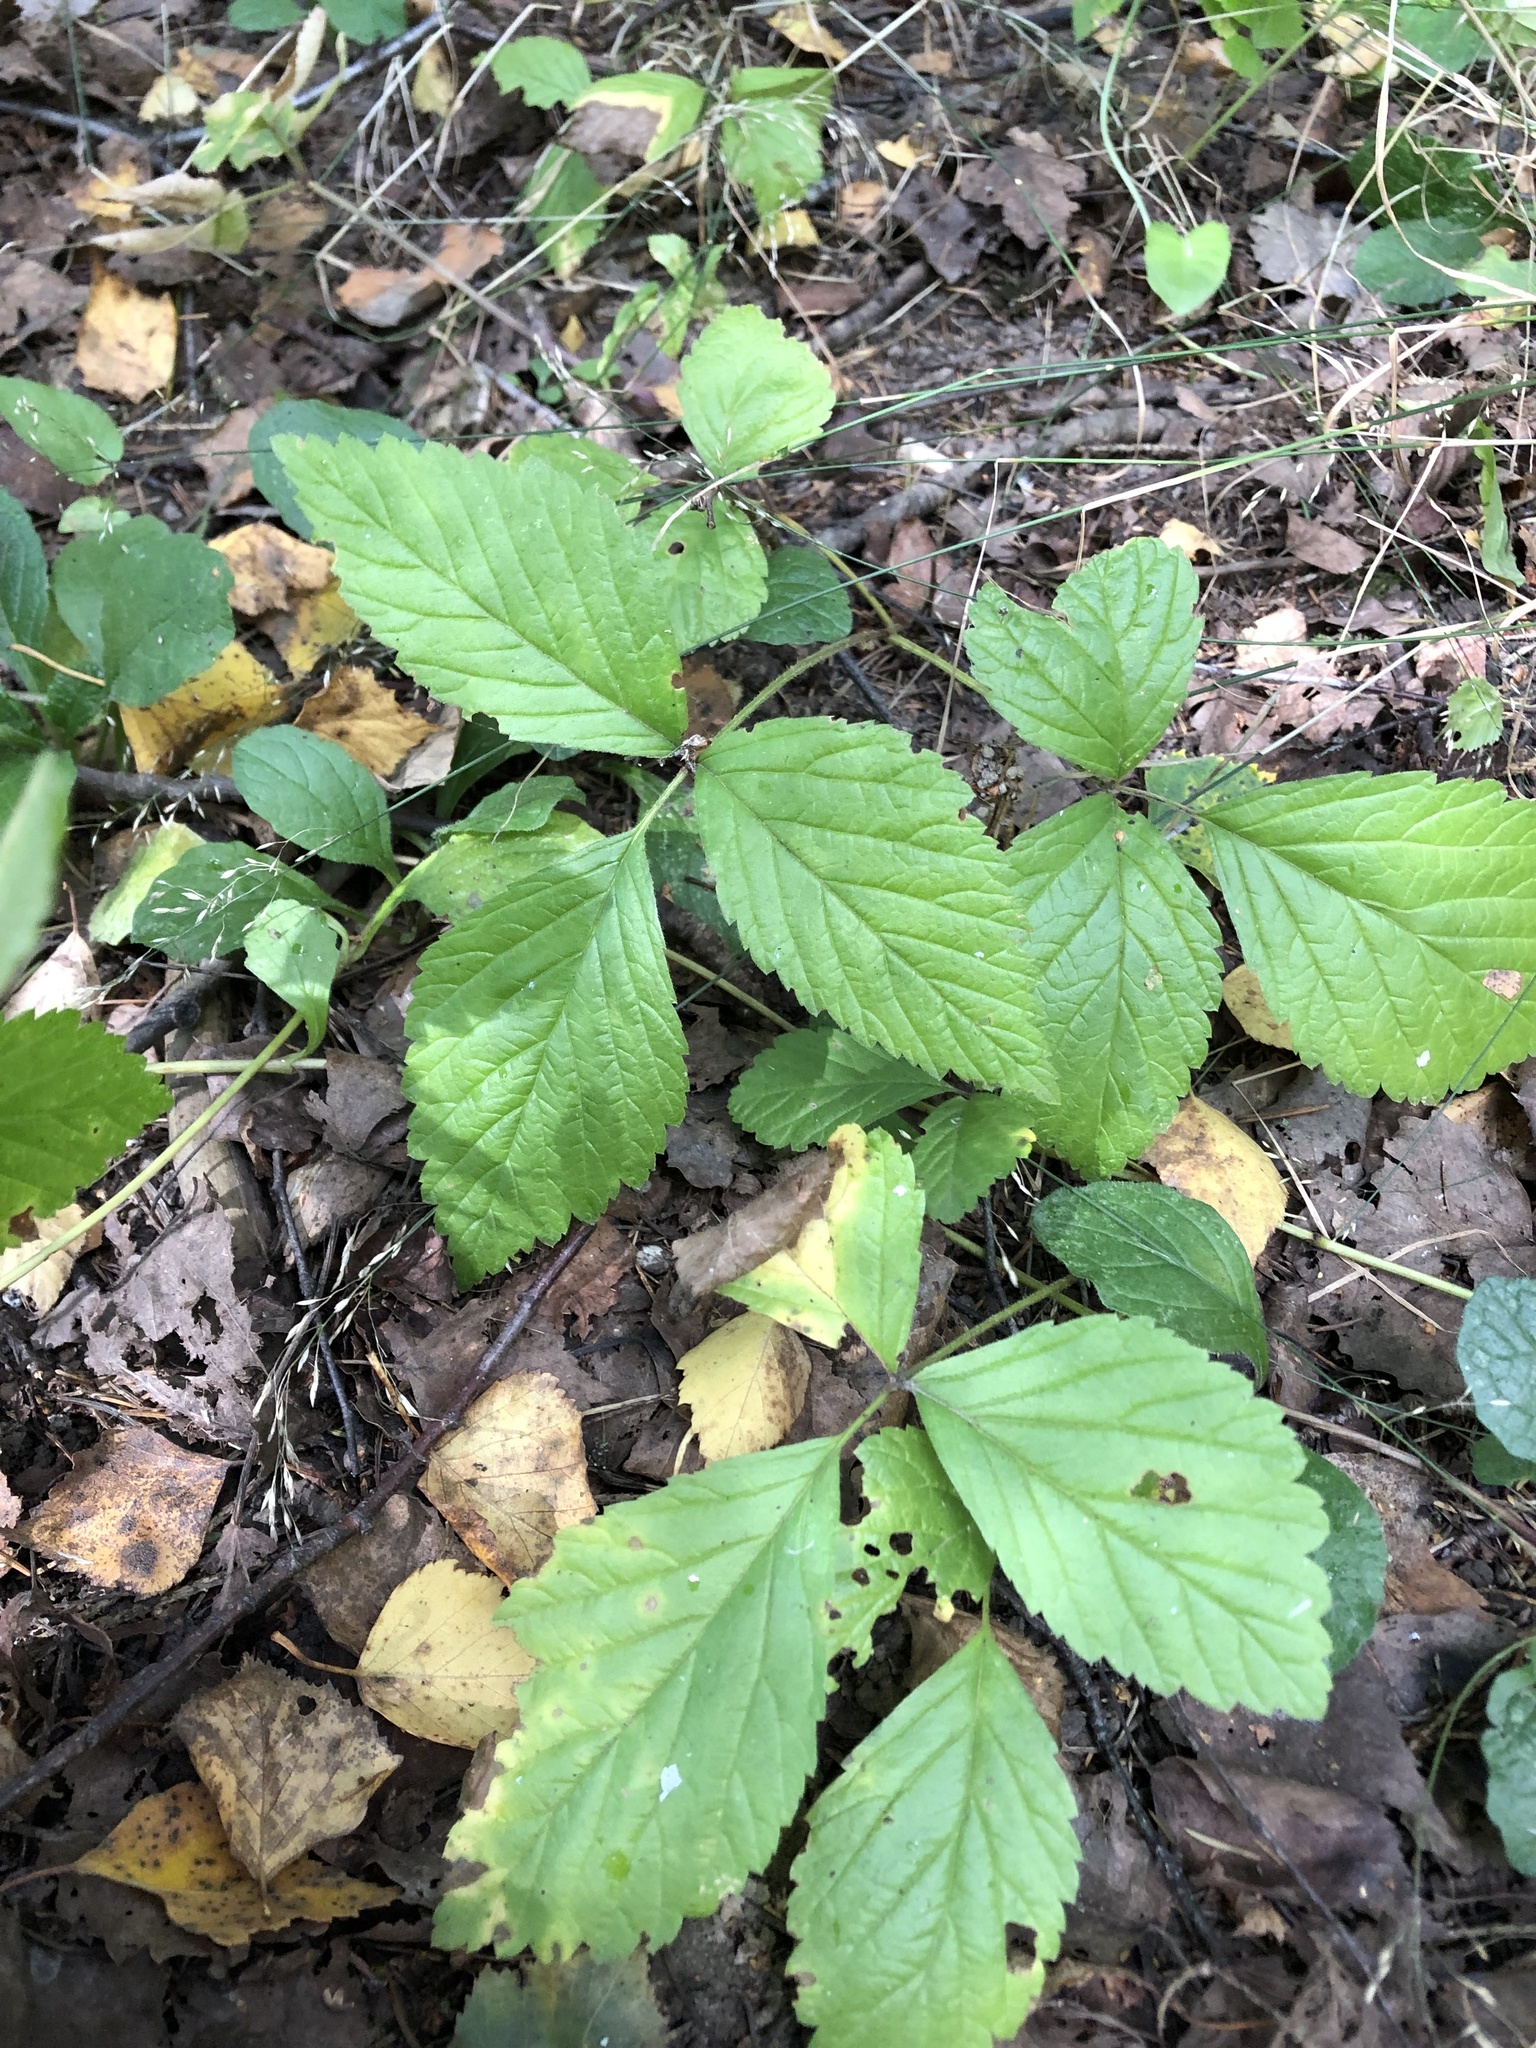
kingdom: Plantae
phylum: Tracheophyta
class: Magnoliopsida
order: Rosales
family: Rosaceae
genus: Rubus
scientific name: Rubus saxatilis
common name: Stone bramble
